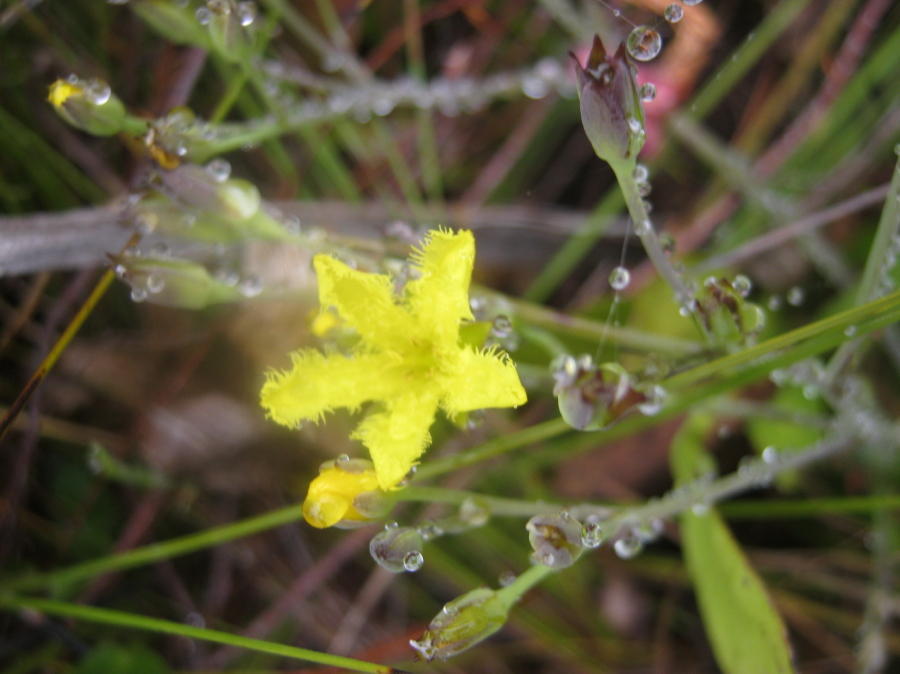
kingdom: Plantae
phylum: Tracheophyta
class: Magnoliopsida
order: Asterales
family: Menyanthaceae
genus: Villarsia
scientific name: Villarsia capensis
